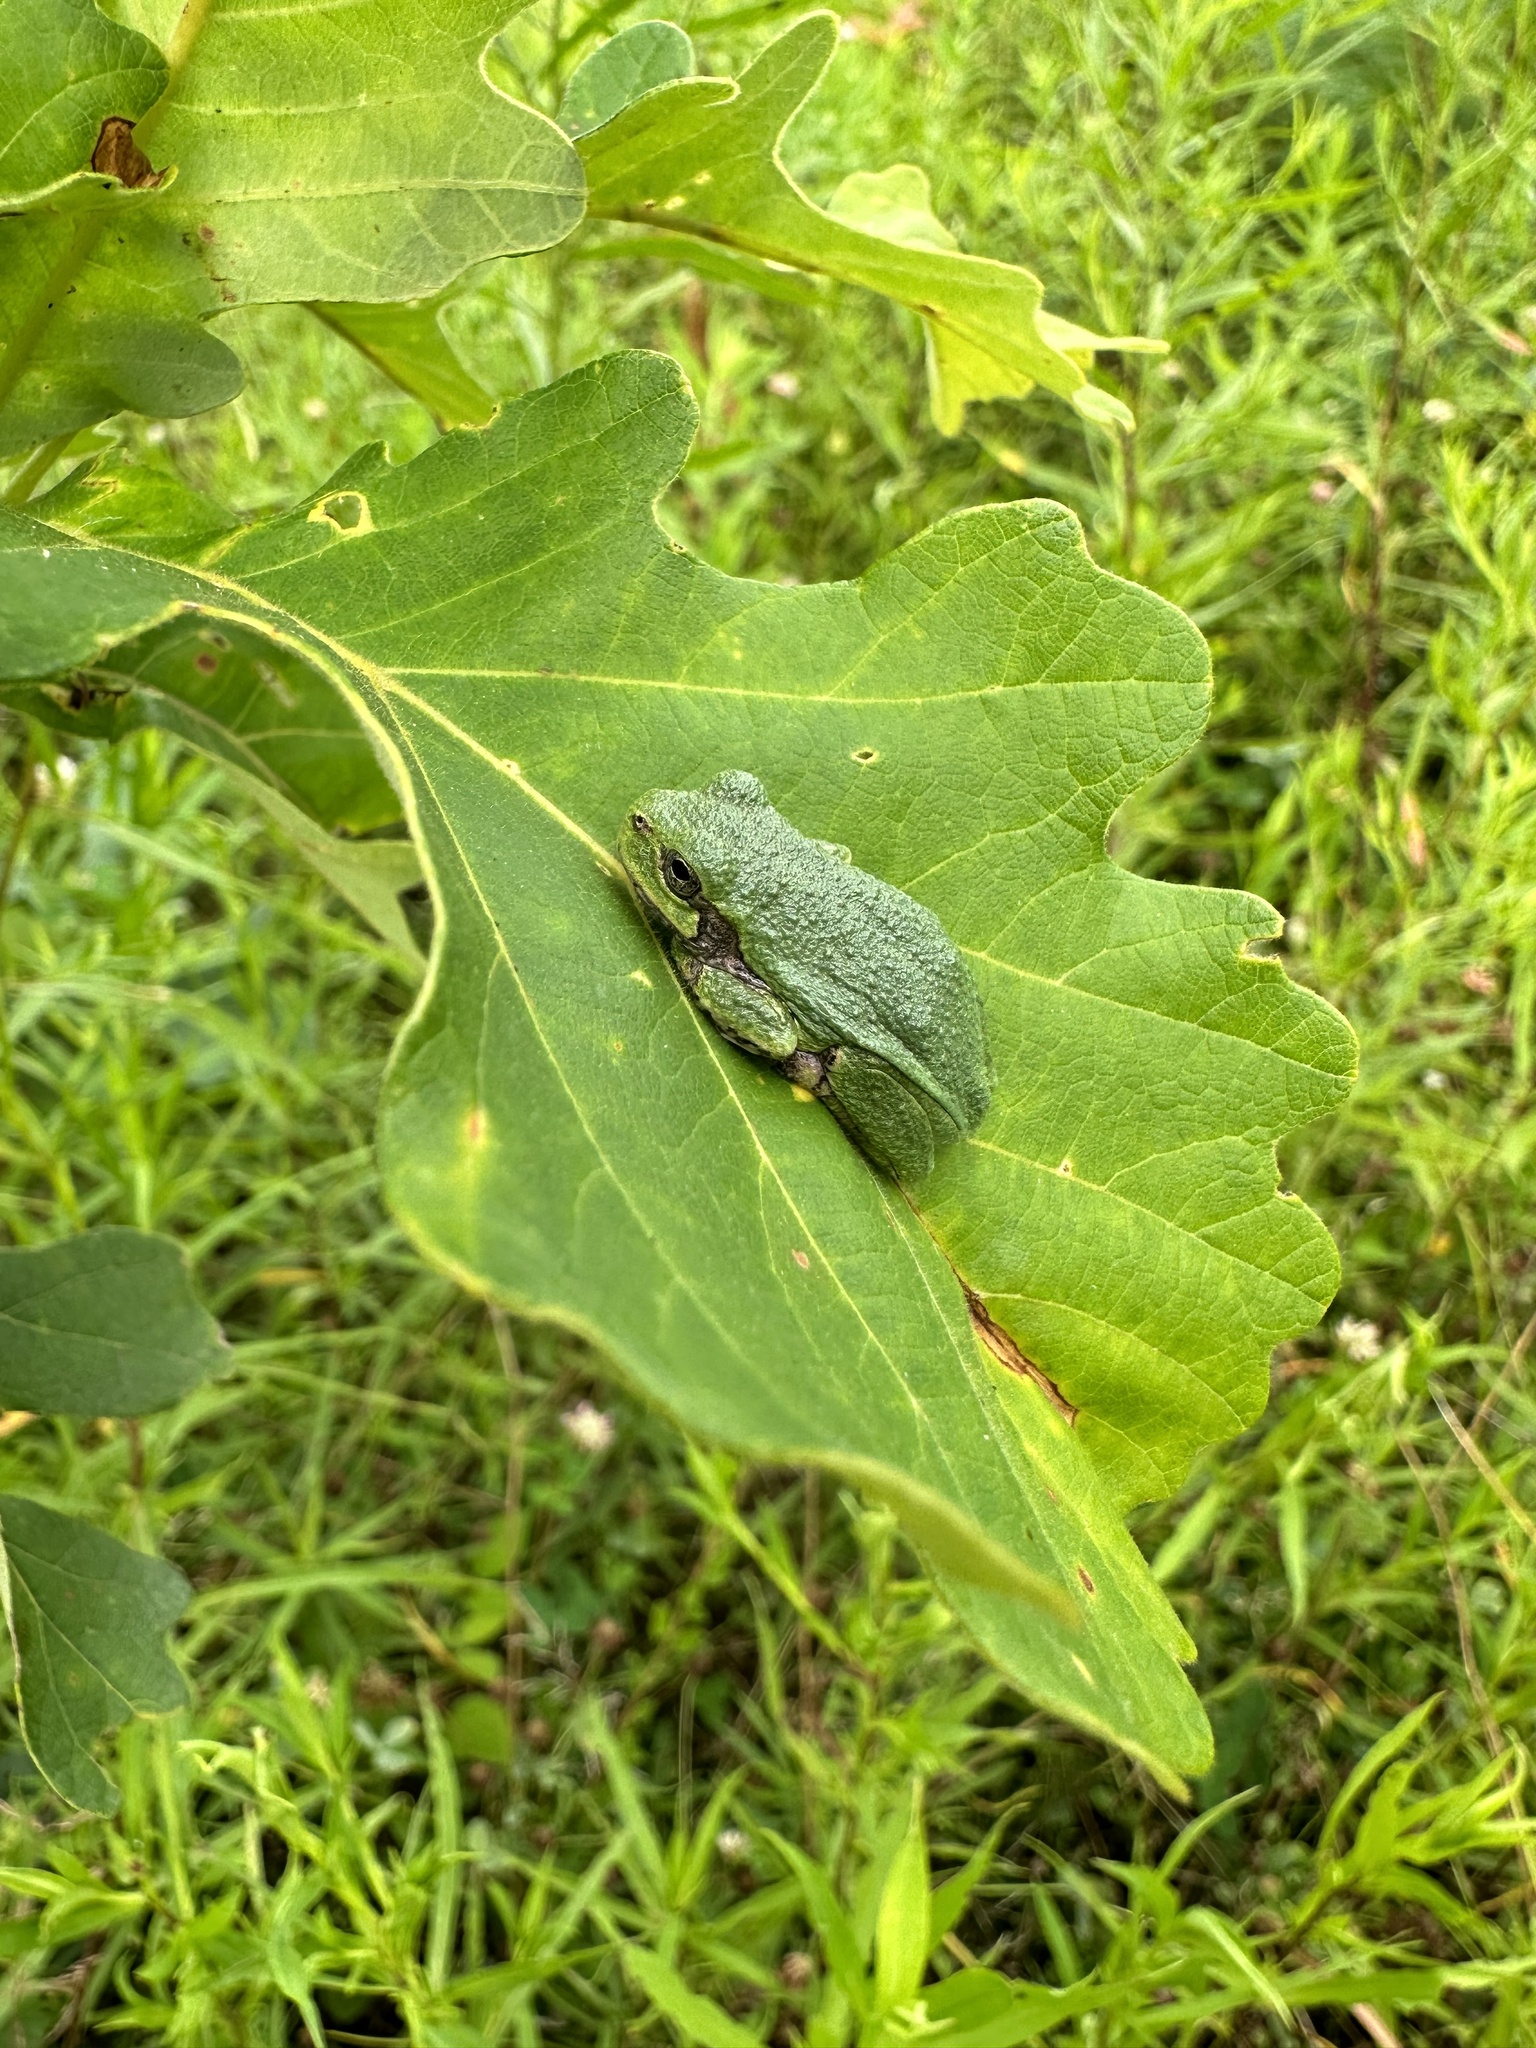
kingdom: Animalia
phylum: Chordata
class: Amphibia
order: Anura
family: Hylidae
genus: Dryophytes
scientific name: Dryophytes versicolor
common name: Gray treefrog
